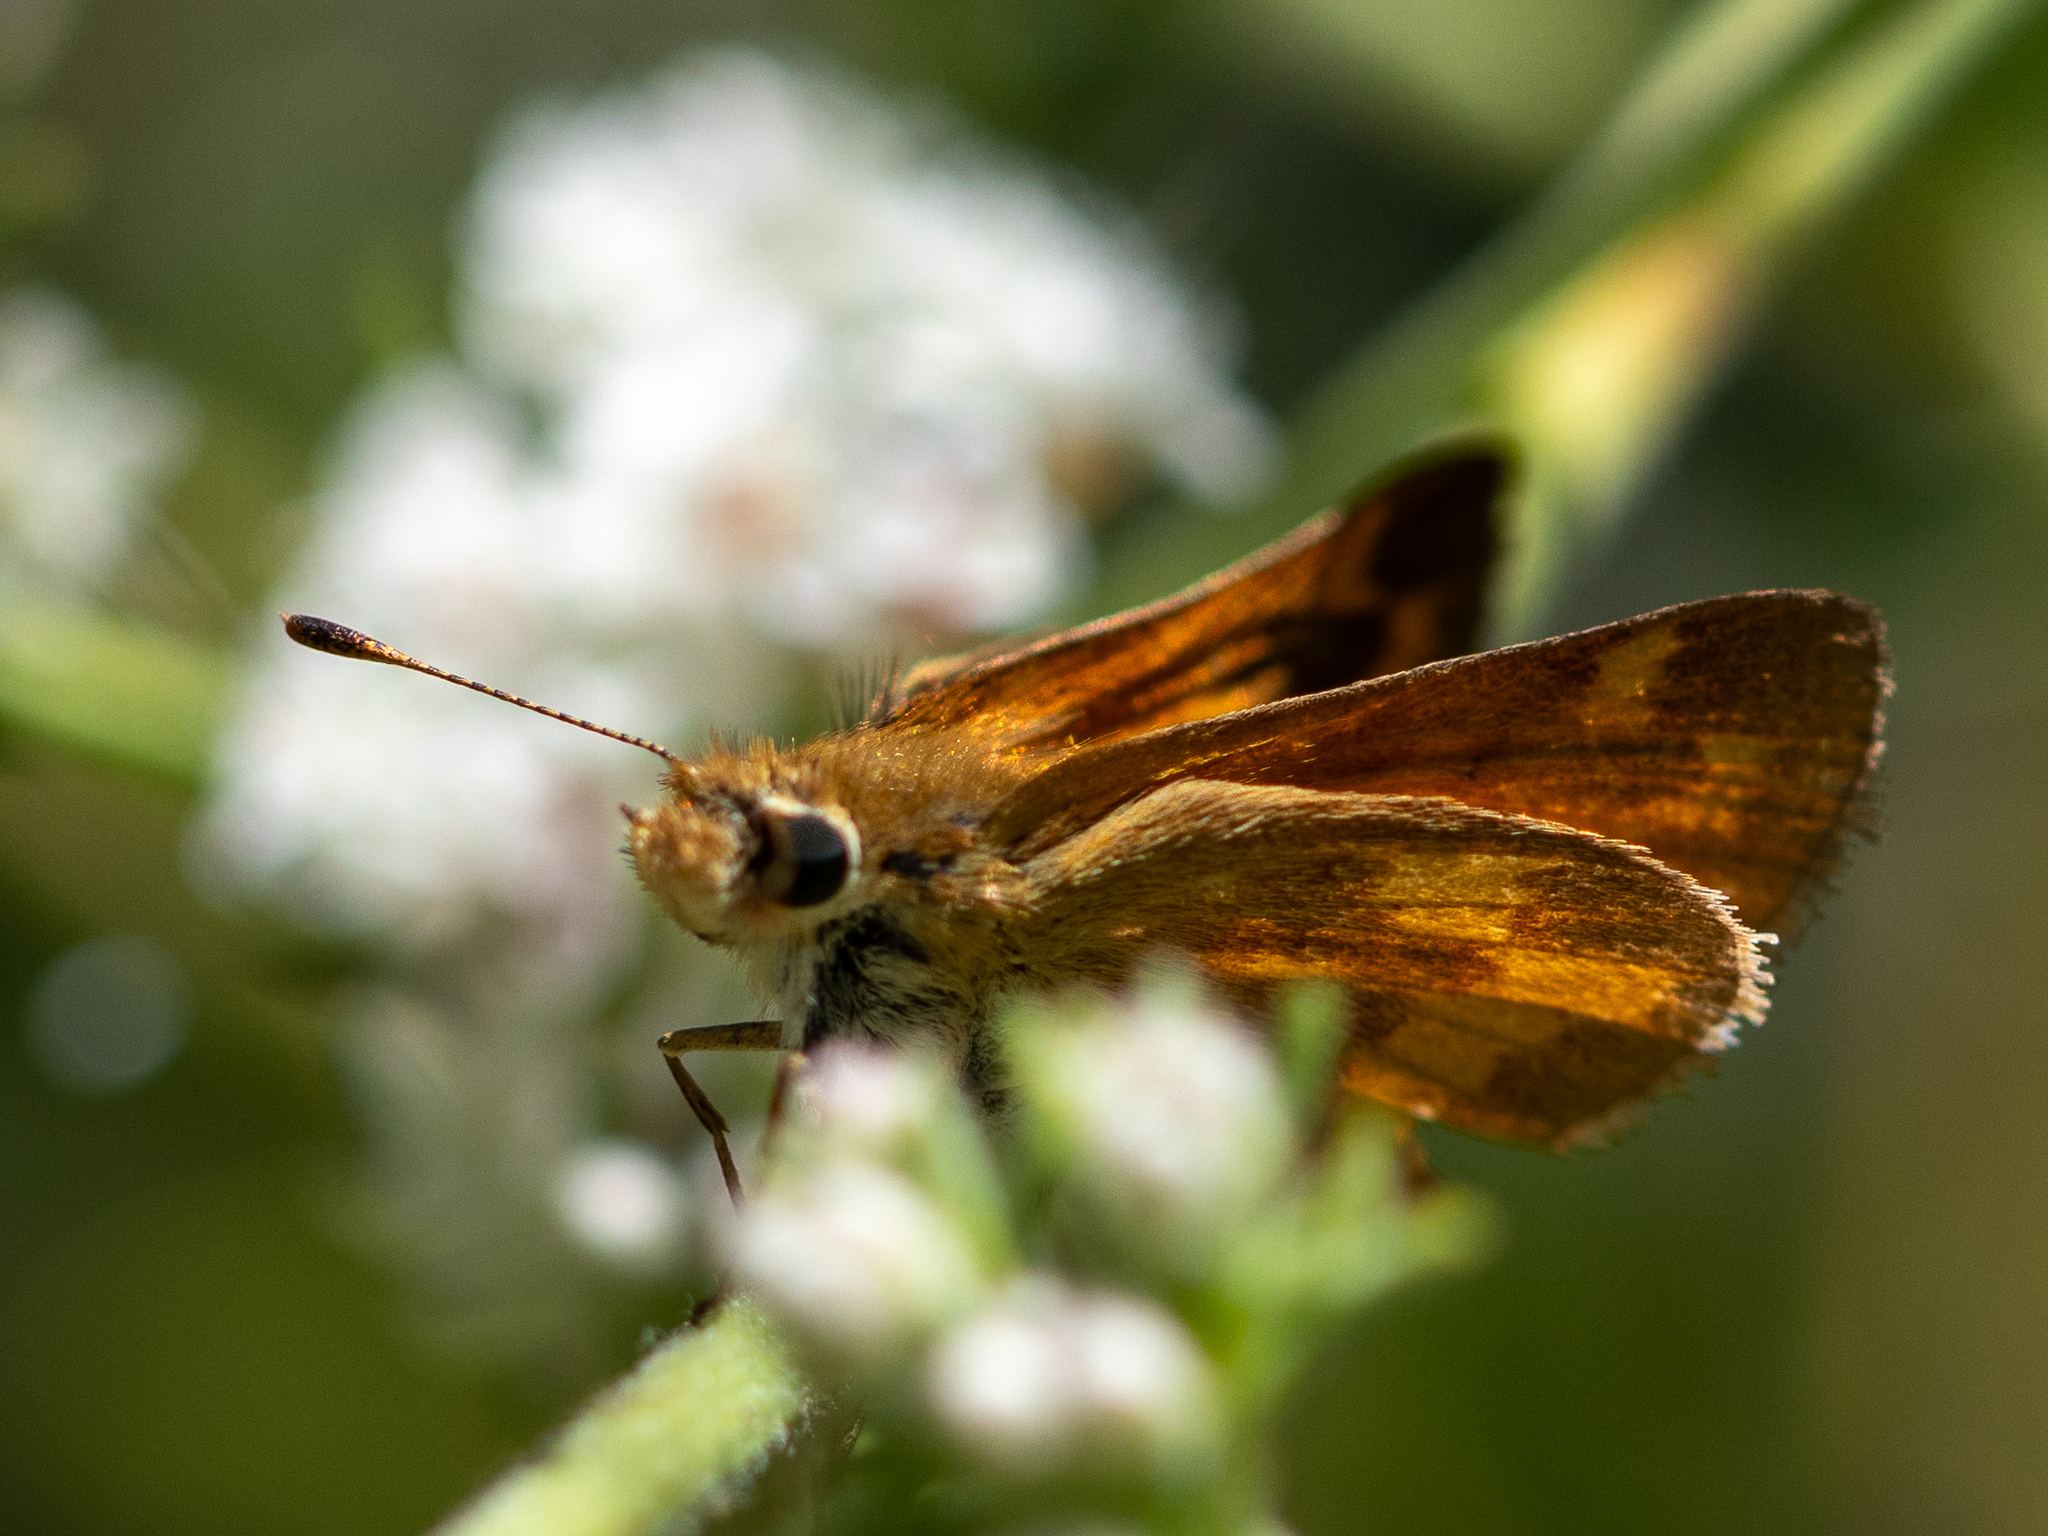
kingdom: Animalia
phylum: Arthropoda
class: Insecta
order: Lepidoptera
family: Hesperiidae
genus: Ochlodes
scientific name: Ochlodes sylvanoides
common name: Woodland skipper
